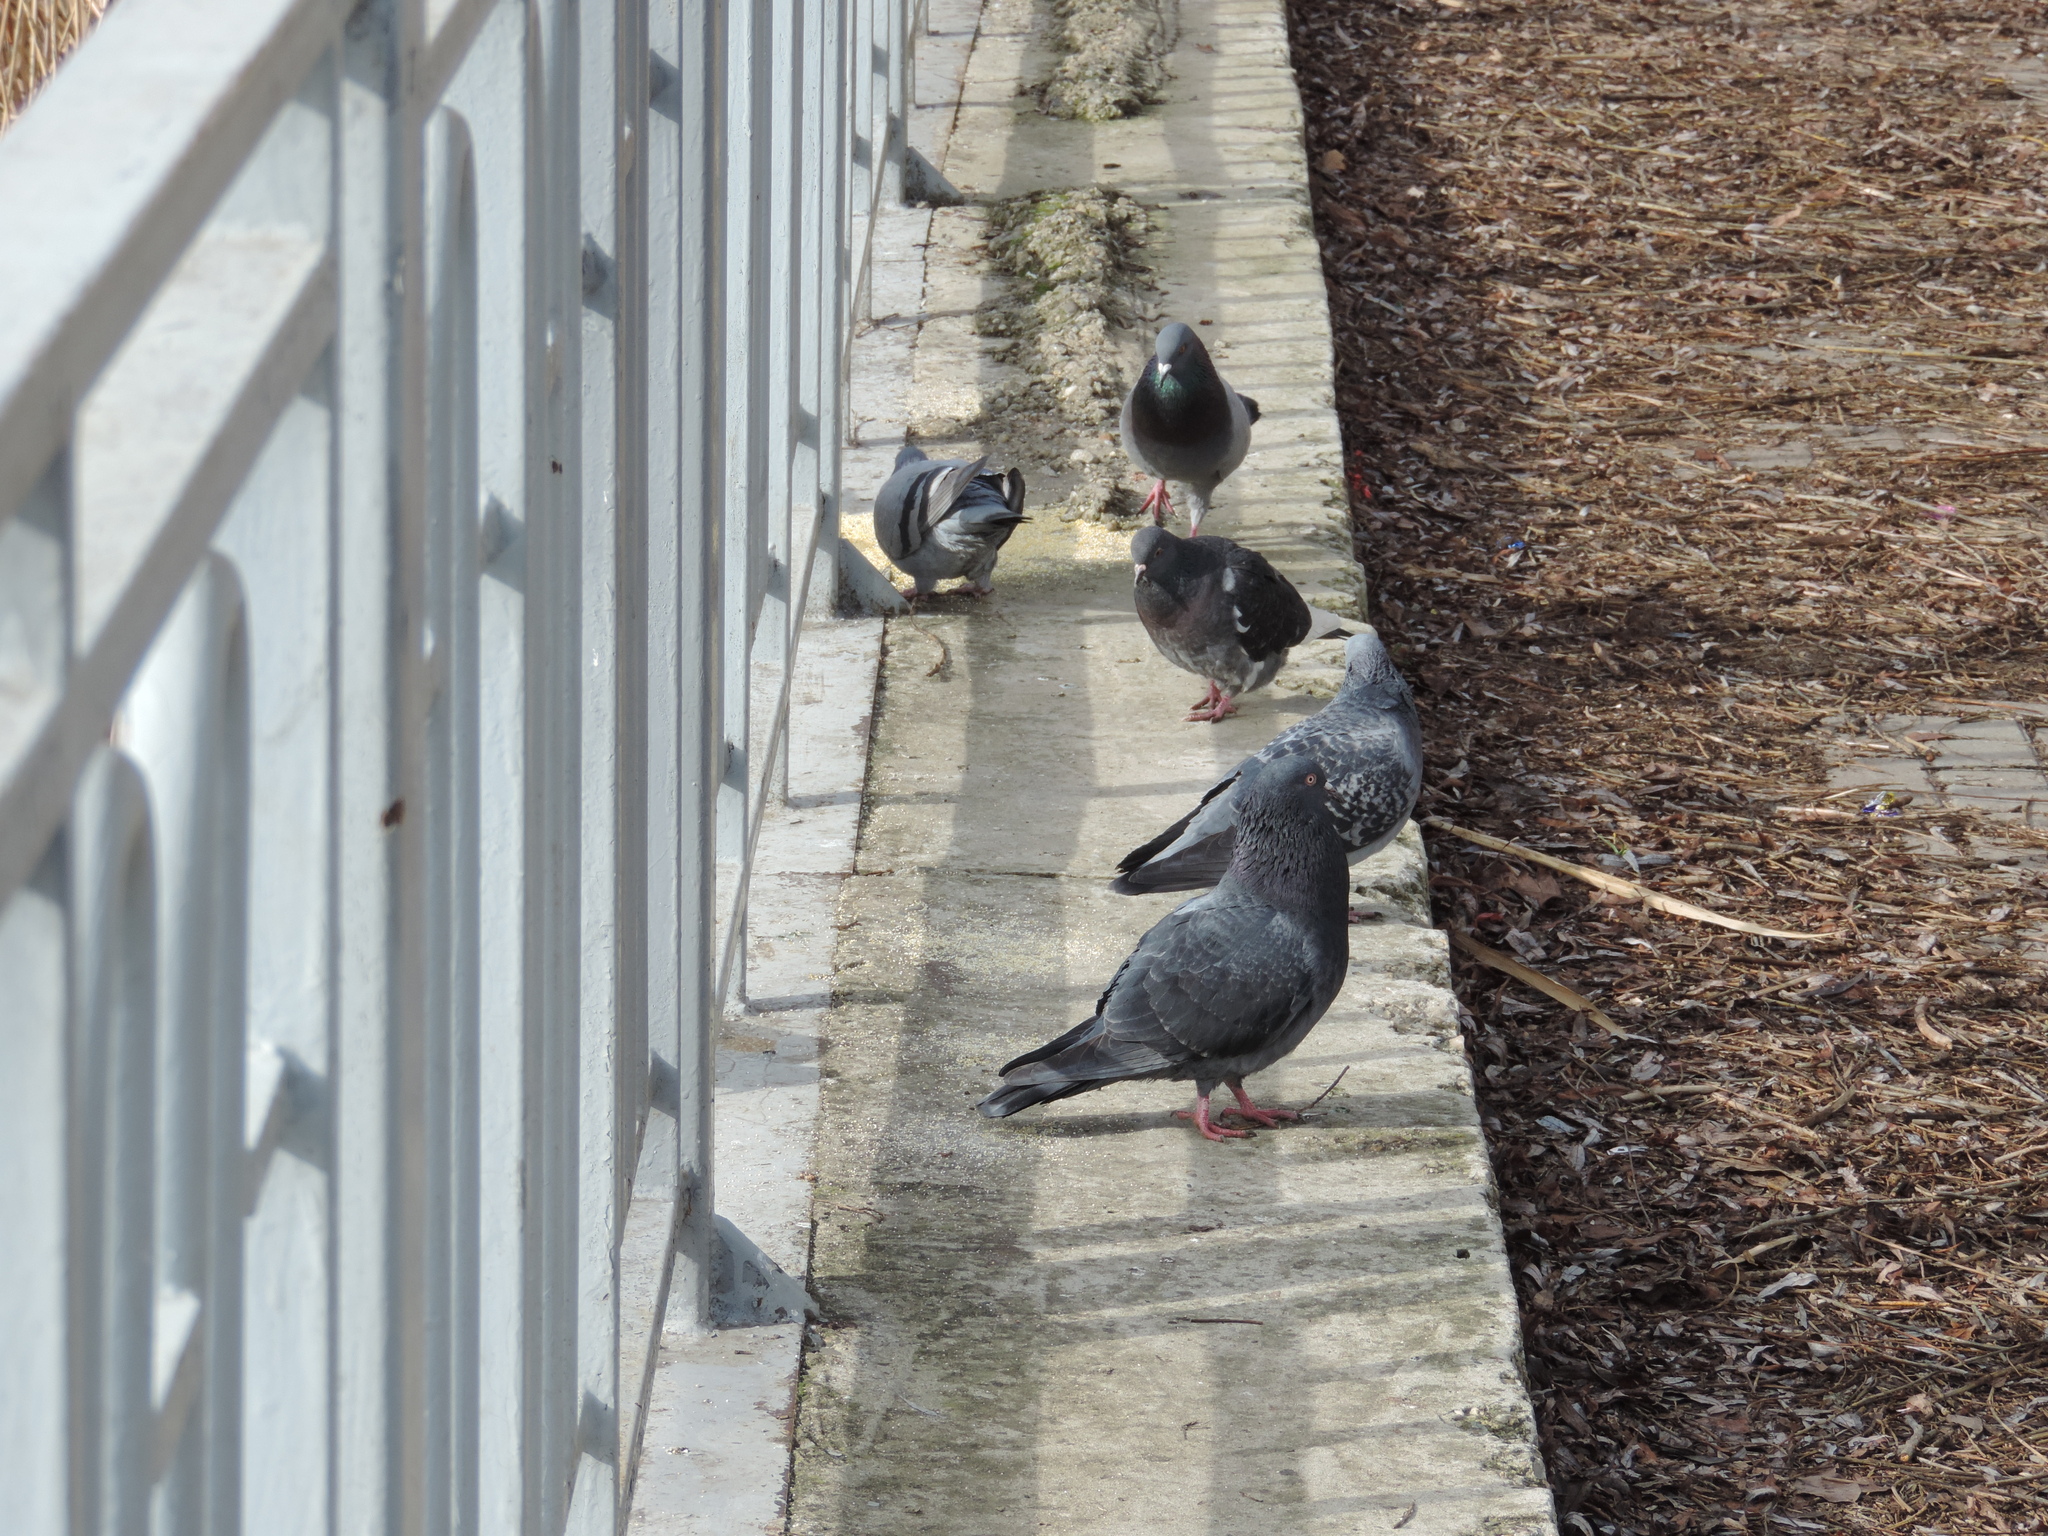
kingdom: Animalia
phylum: Chordata
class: Aves
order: Columbiformes
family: Columbidae
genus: Columba
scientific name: Columba livia
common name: Rock pigeon
